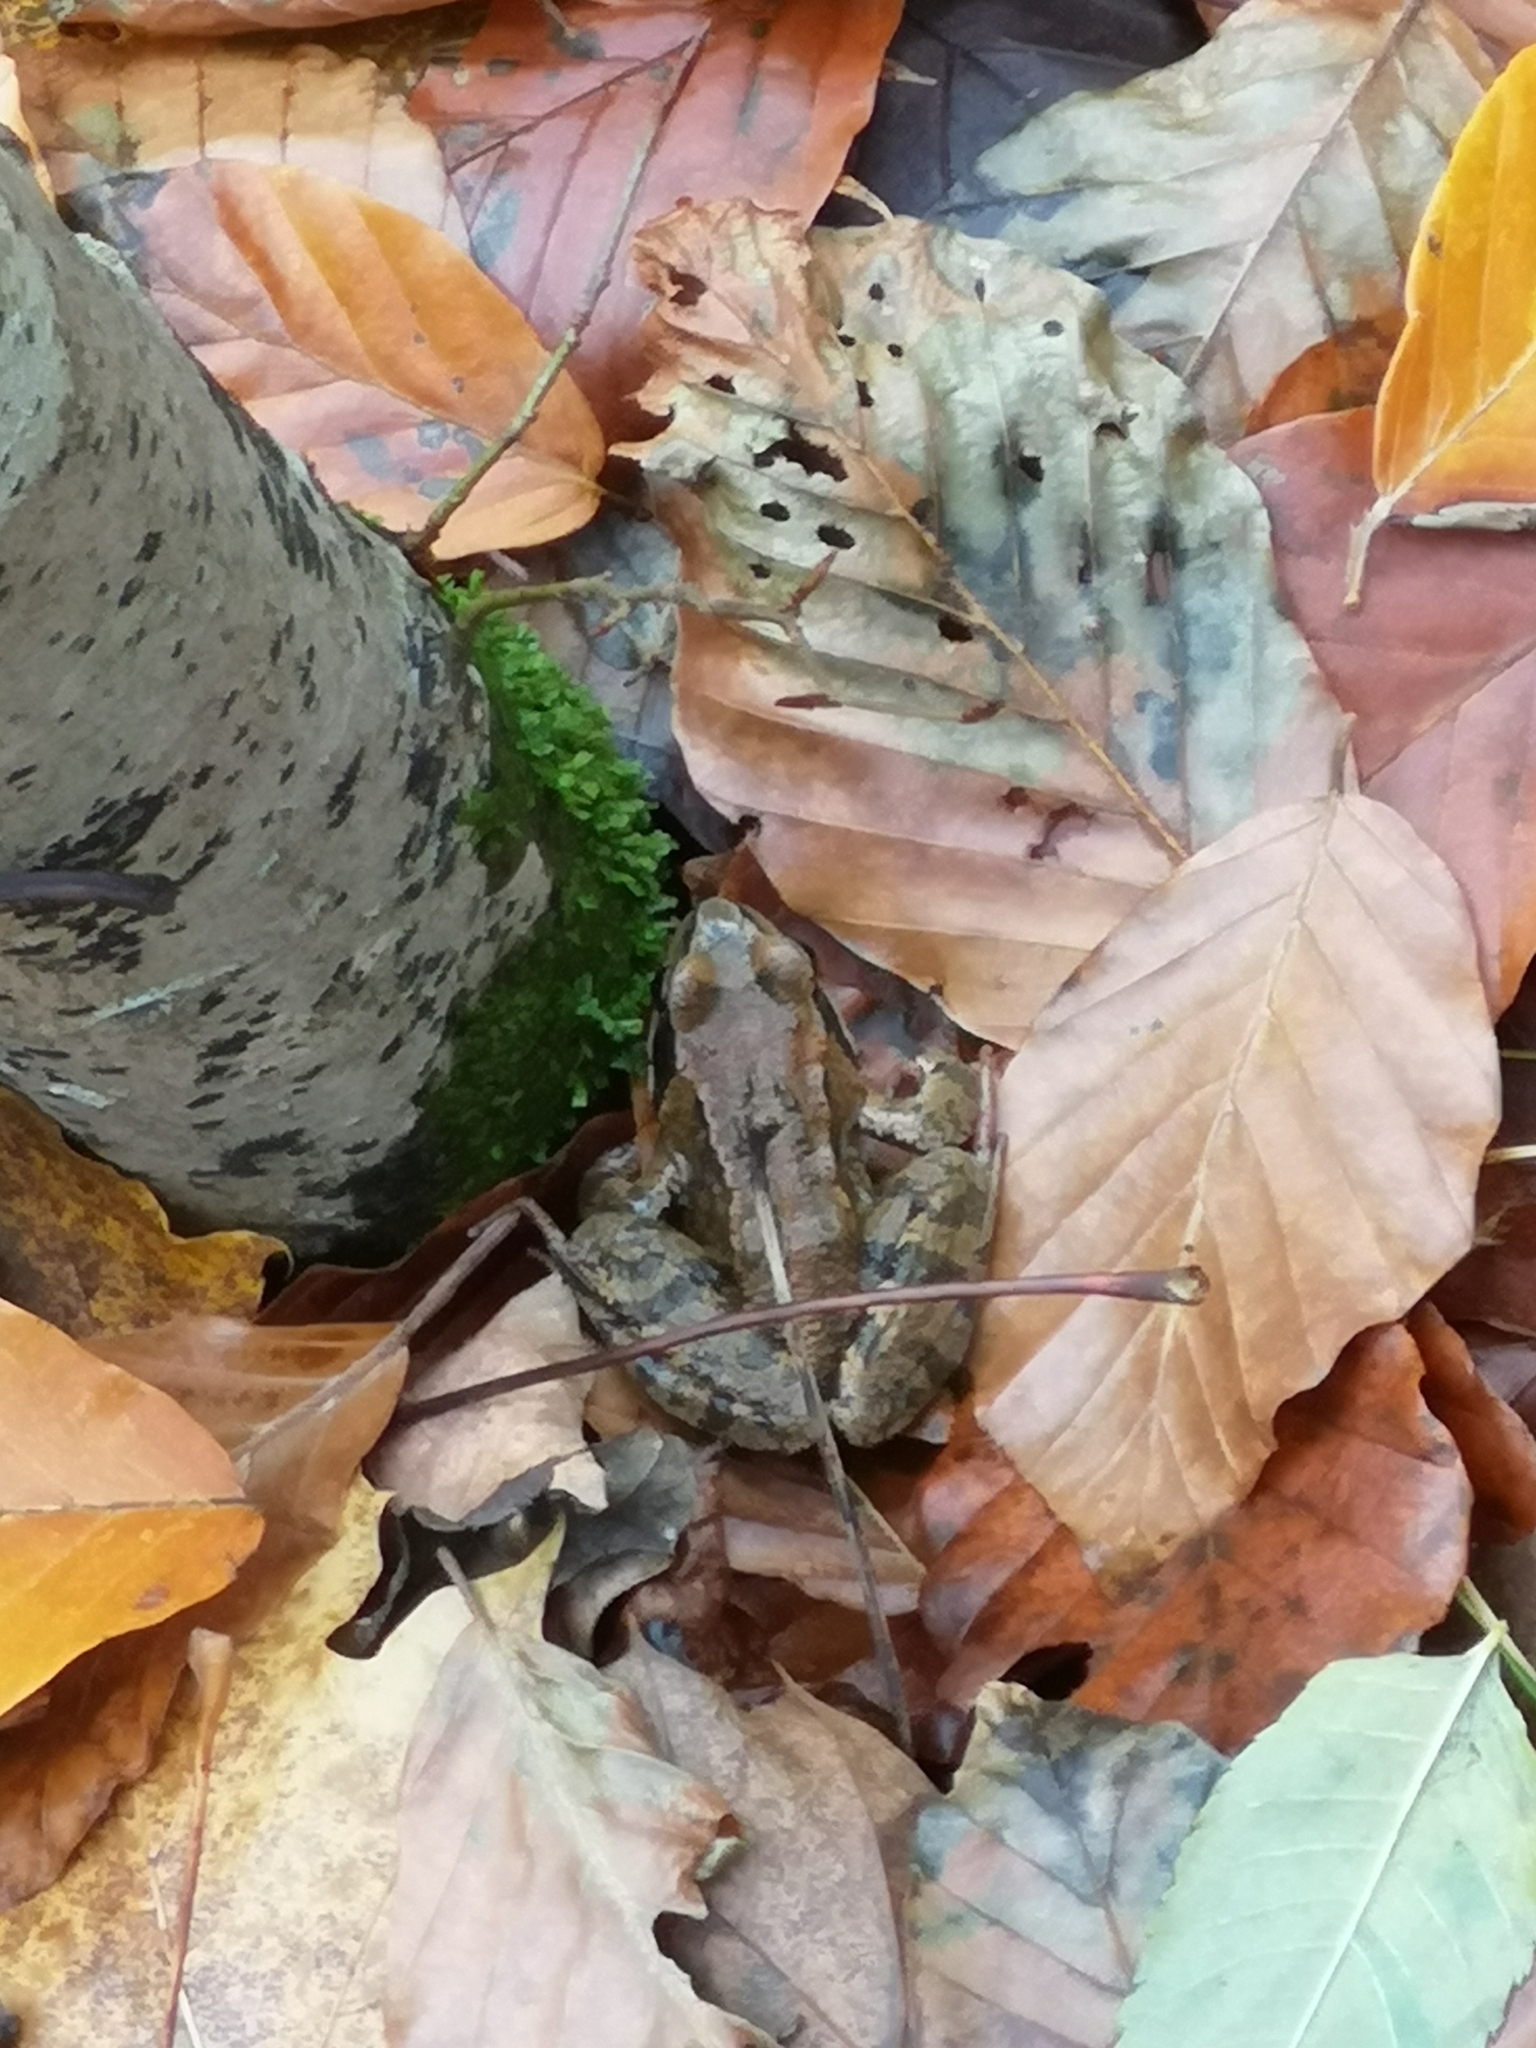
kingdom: Animalia
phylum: Chordata
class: Amphibia
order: Anura
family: Ranidae
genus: Rana
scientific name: Rana temporaria
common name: Common frog
